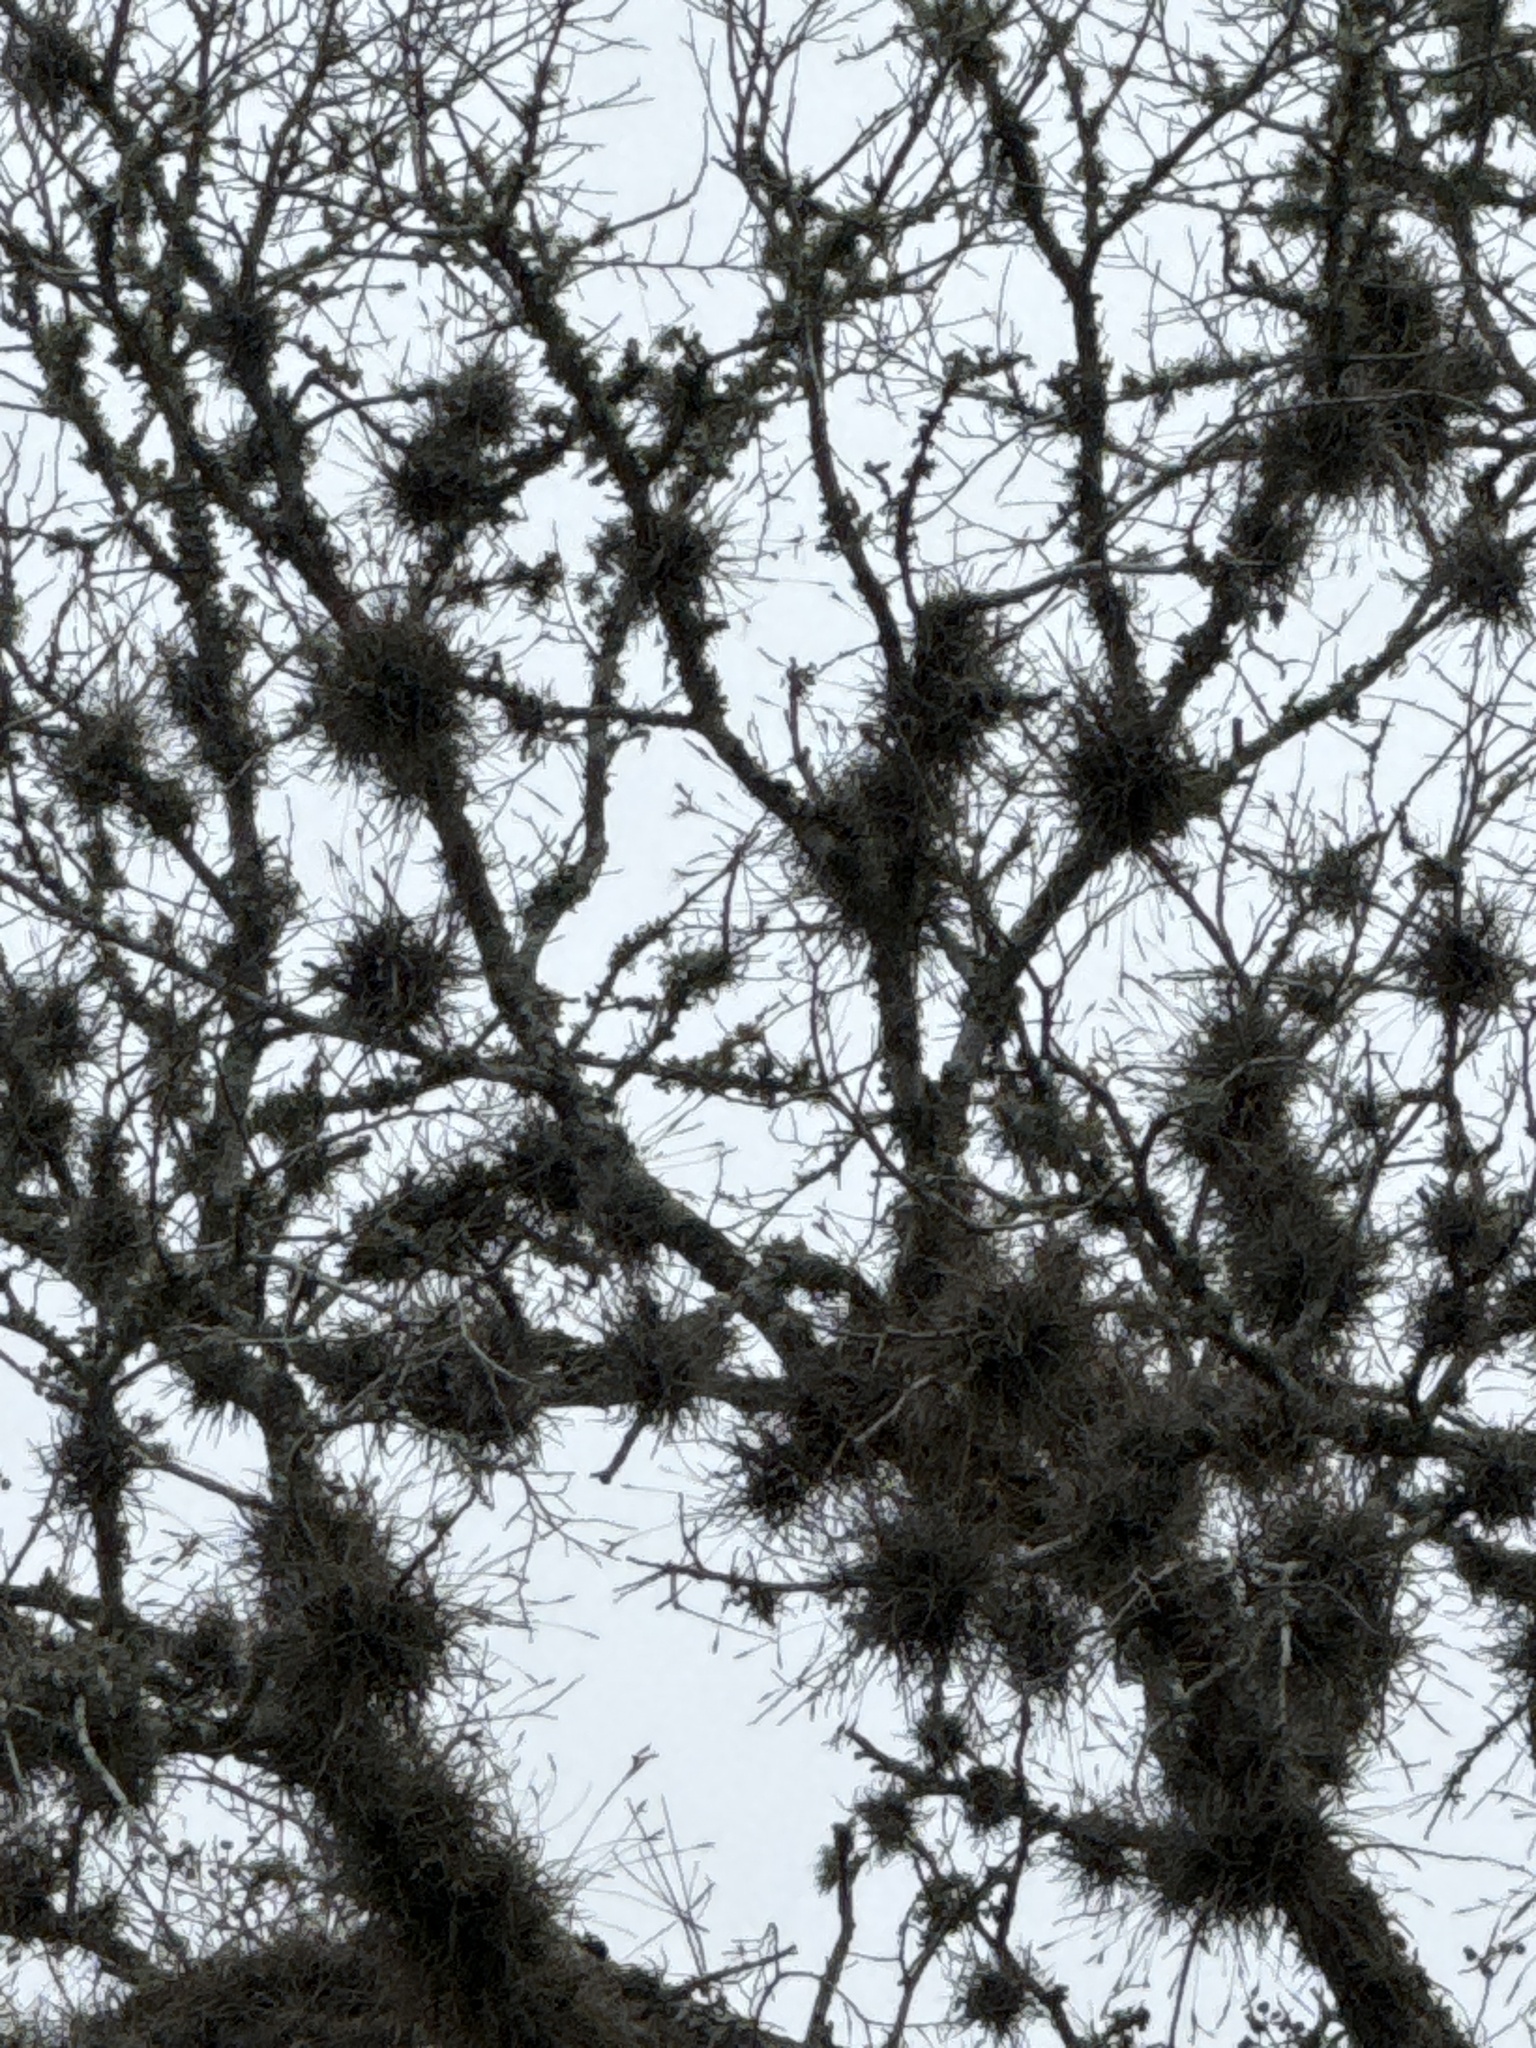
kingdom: Plantae
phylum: Tracheophyta
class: Liliopsida
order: Poales
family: Bromeliaceae
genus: Tillandsia
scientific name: Tillandsia recurvata
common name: Small ballmoss
